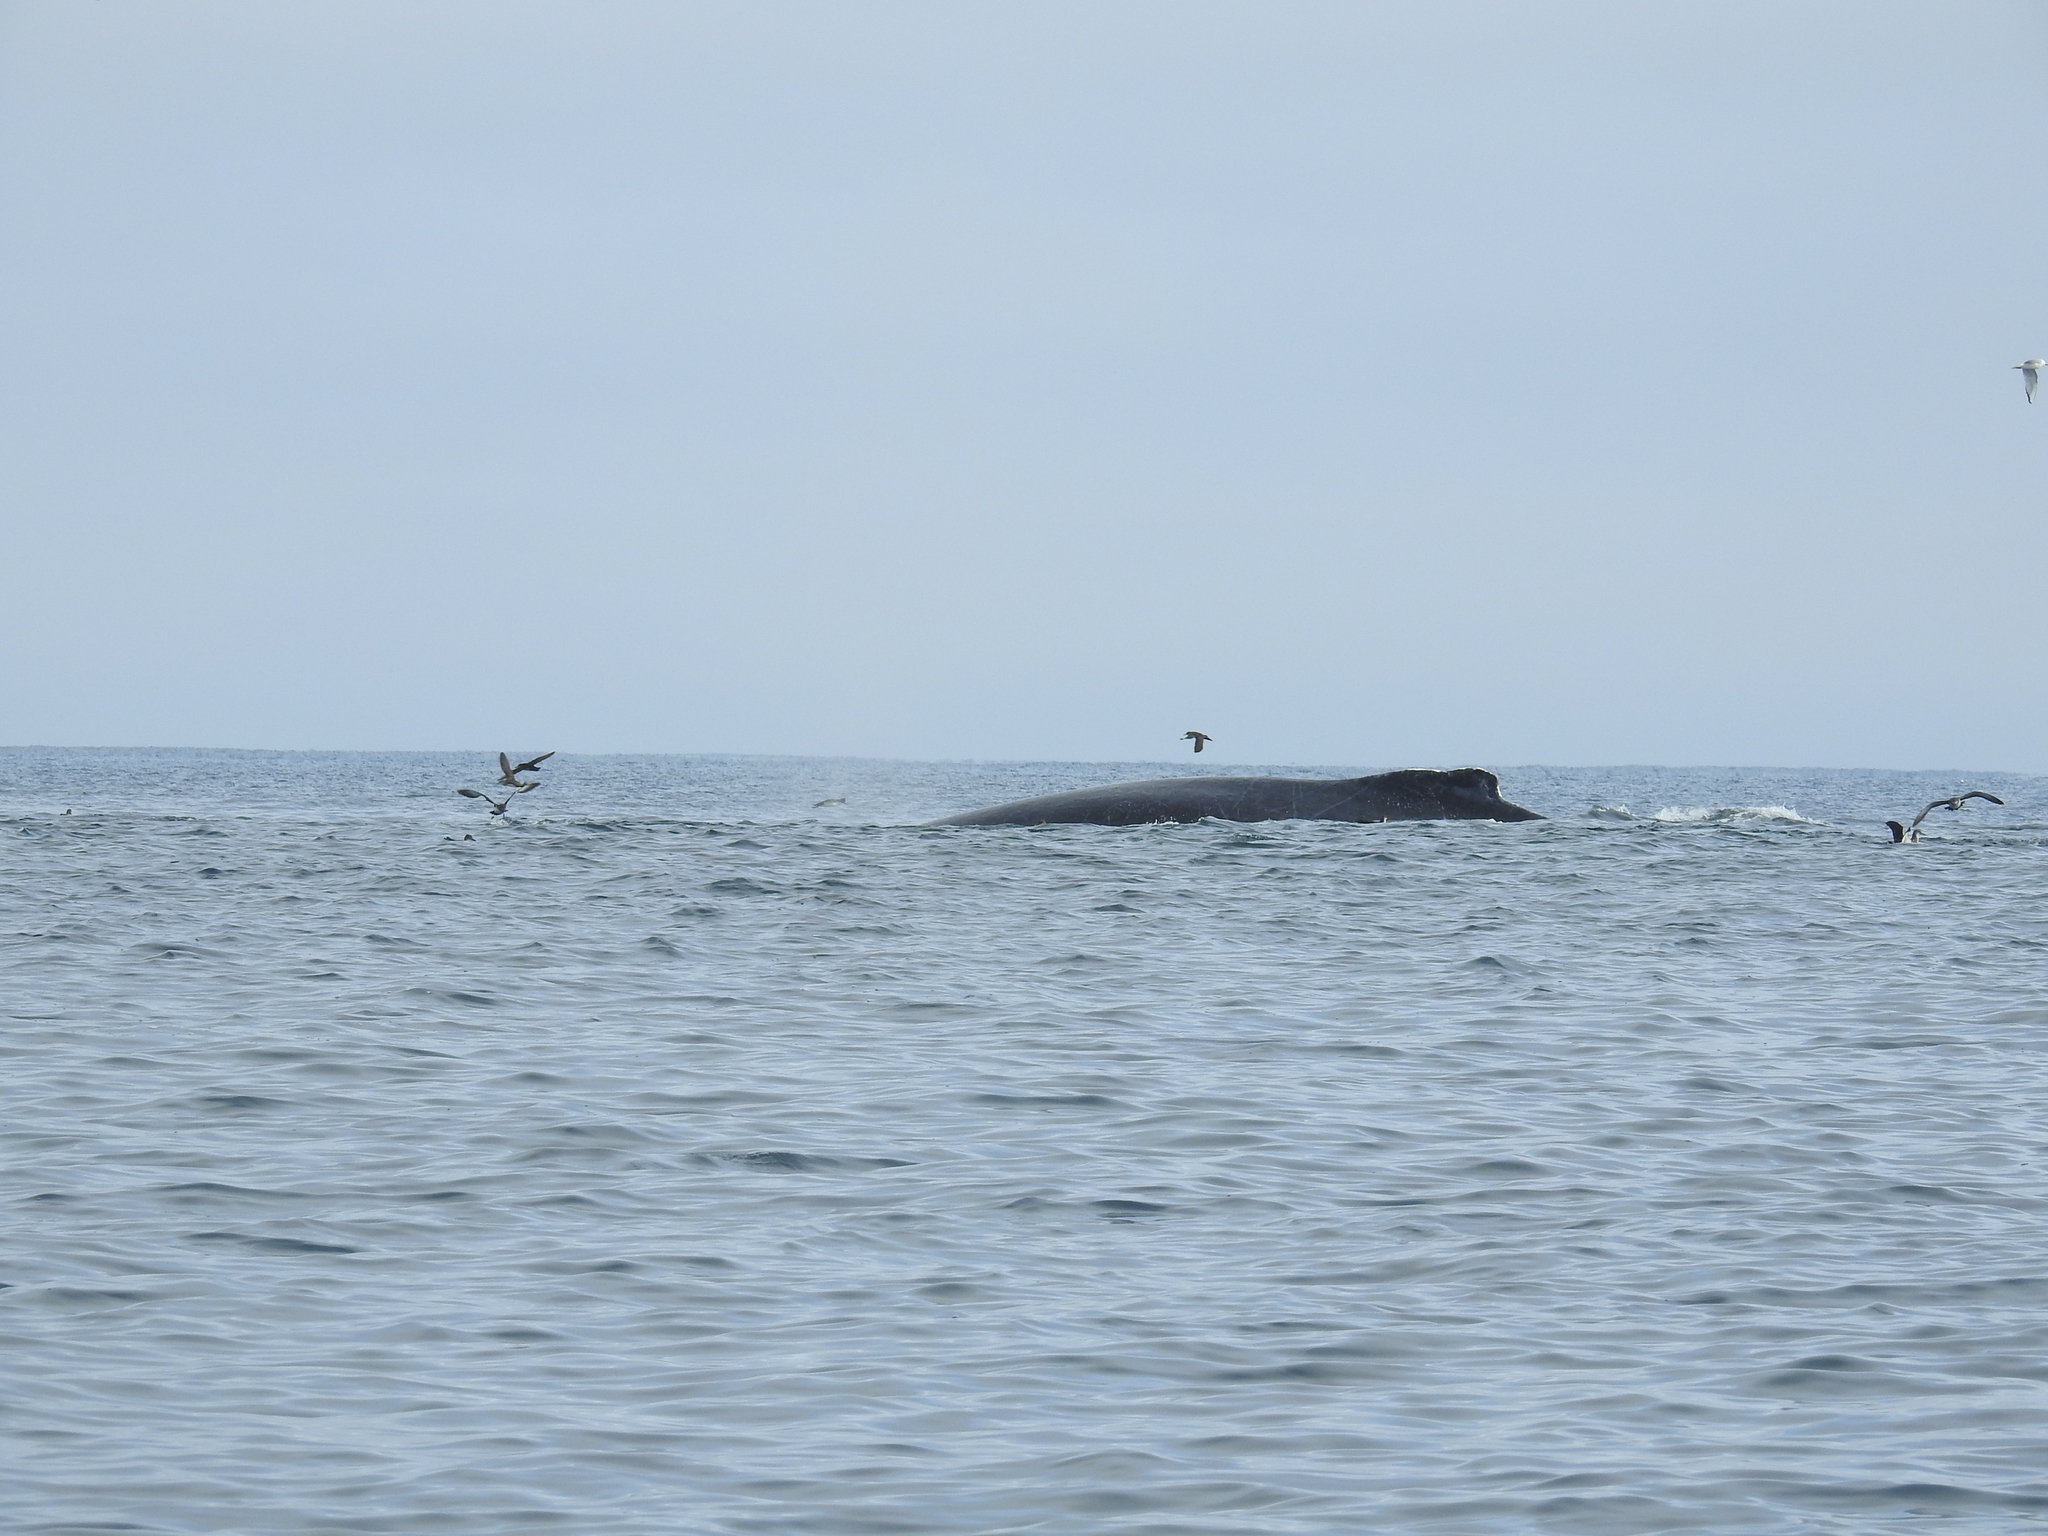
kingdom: Animalia
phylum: Chordata
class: Mammalia
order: Cetacea
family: Balaenopteridae
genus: Megaptera
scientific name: Megaptera novaeangliae
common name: Humpback whale
